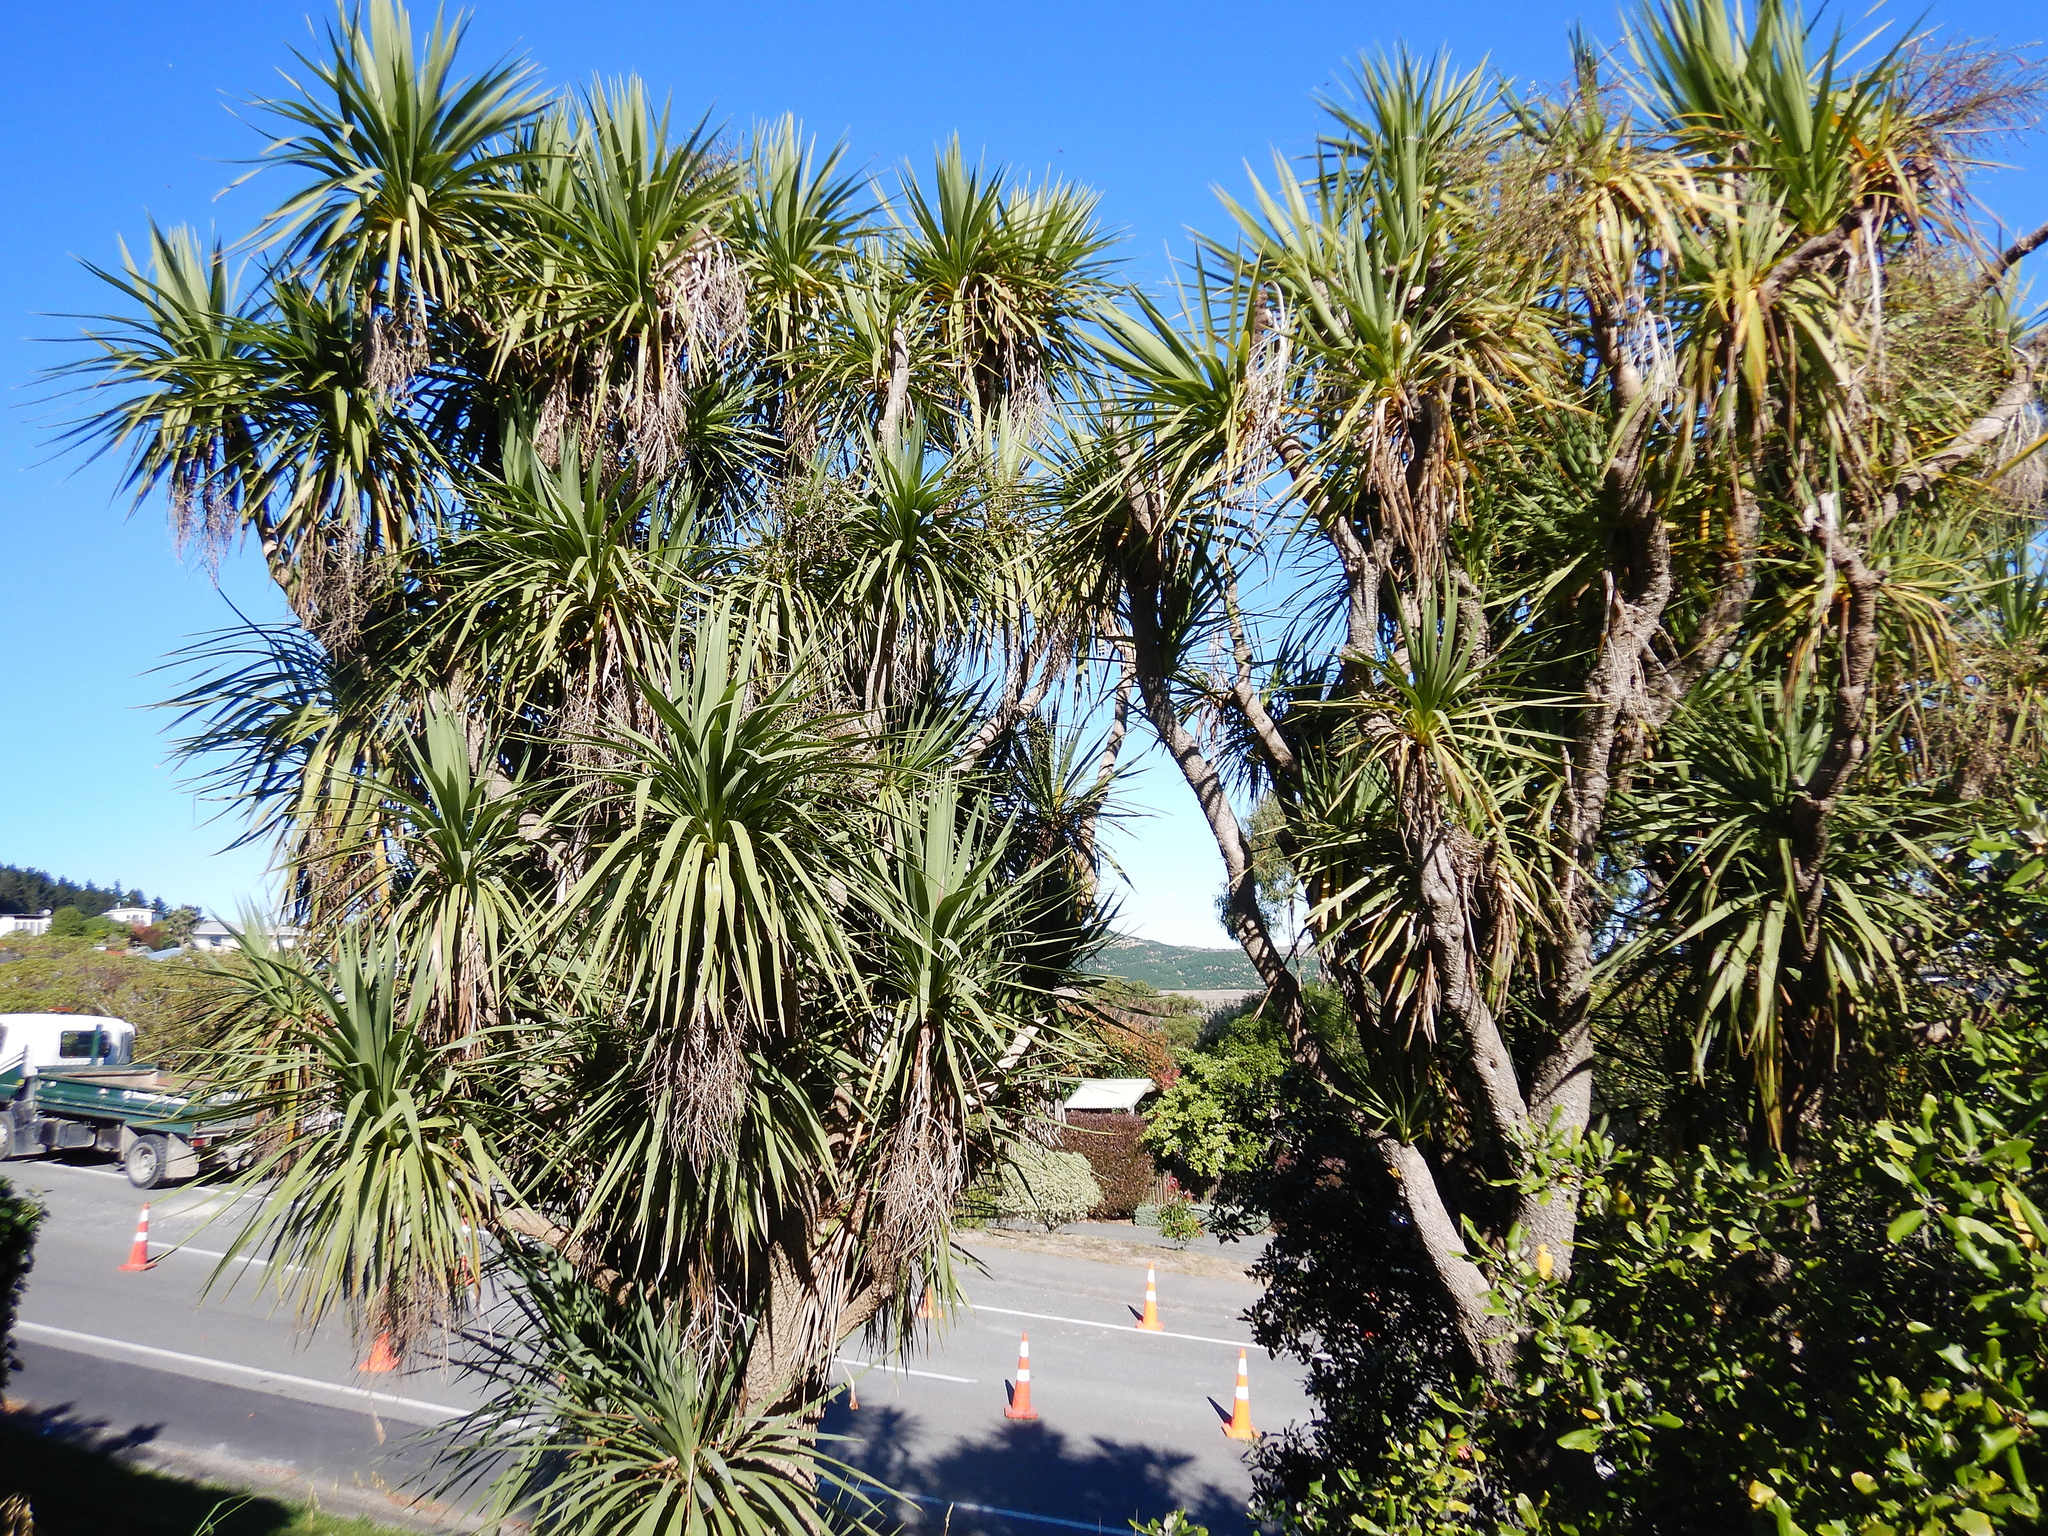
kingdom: Plantae
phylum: Tracheophyta
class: Liliopsida
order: Asparagales
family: Asparagaceae
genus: Cordyline
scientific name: Cordyline australis
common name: Cabbage-palm
